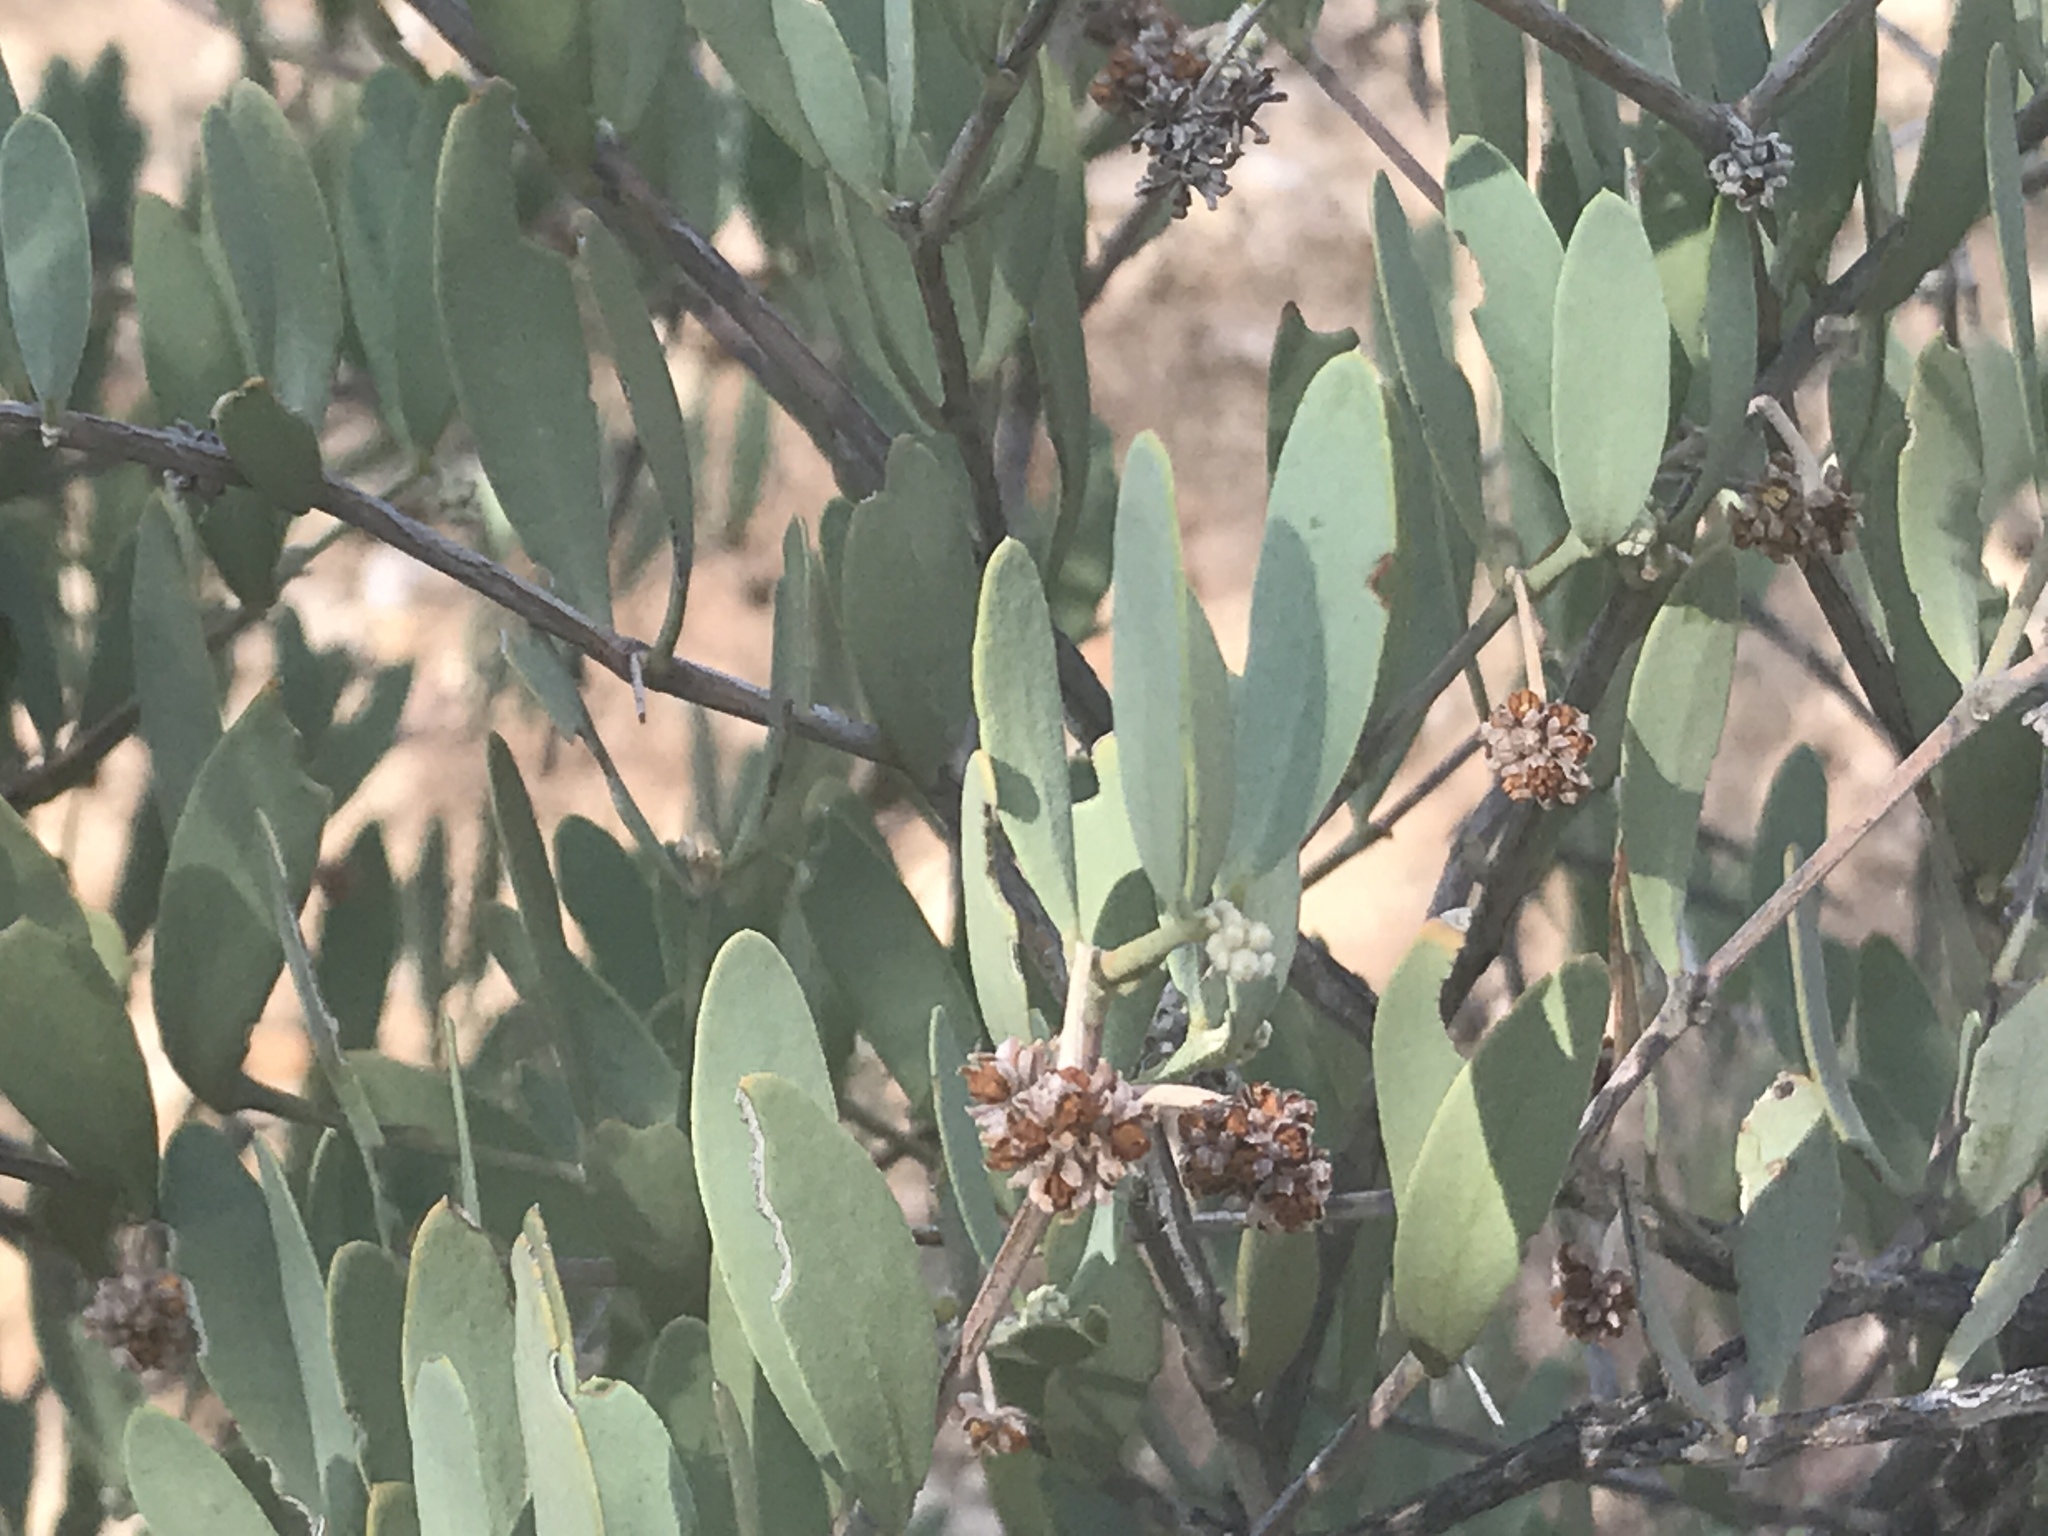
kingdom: Plantae
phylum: Tracheophyta
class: Magnoliopsida
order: Caryophyllales
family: Simmondsiaceae
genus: Simmondsia
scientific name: Simmondsia chinensis
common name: Jojoba
